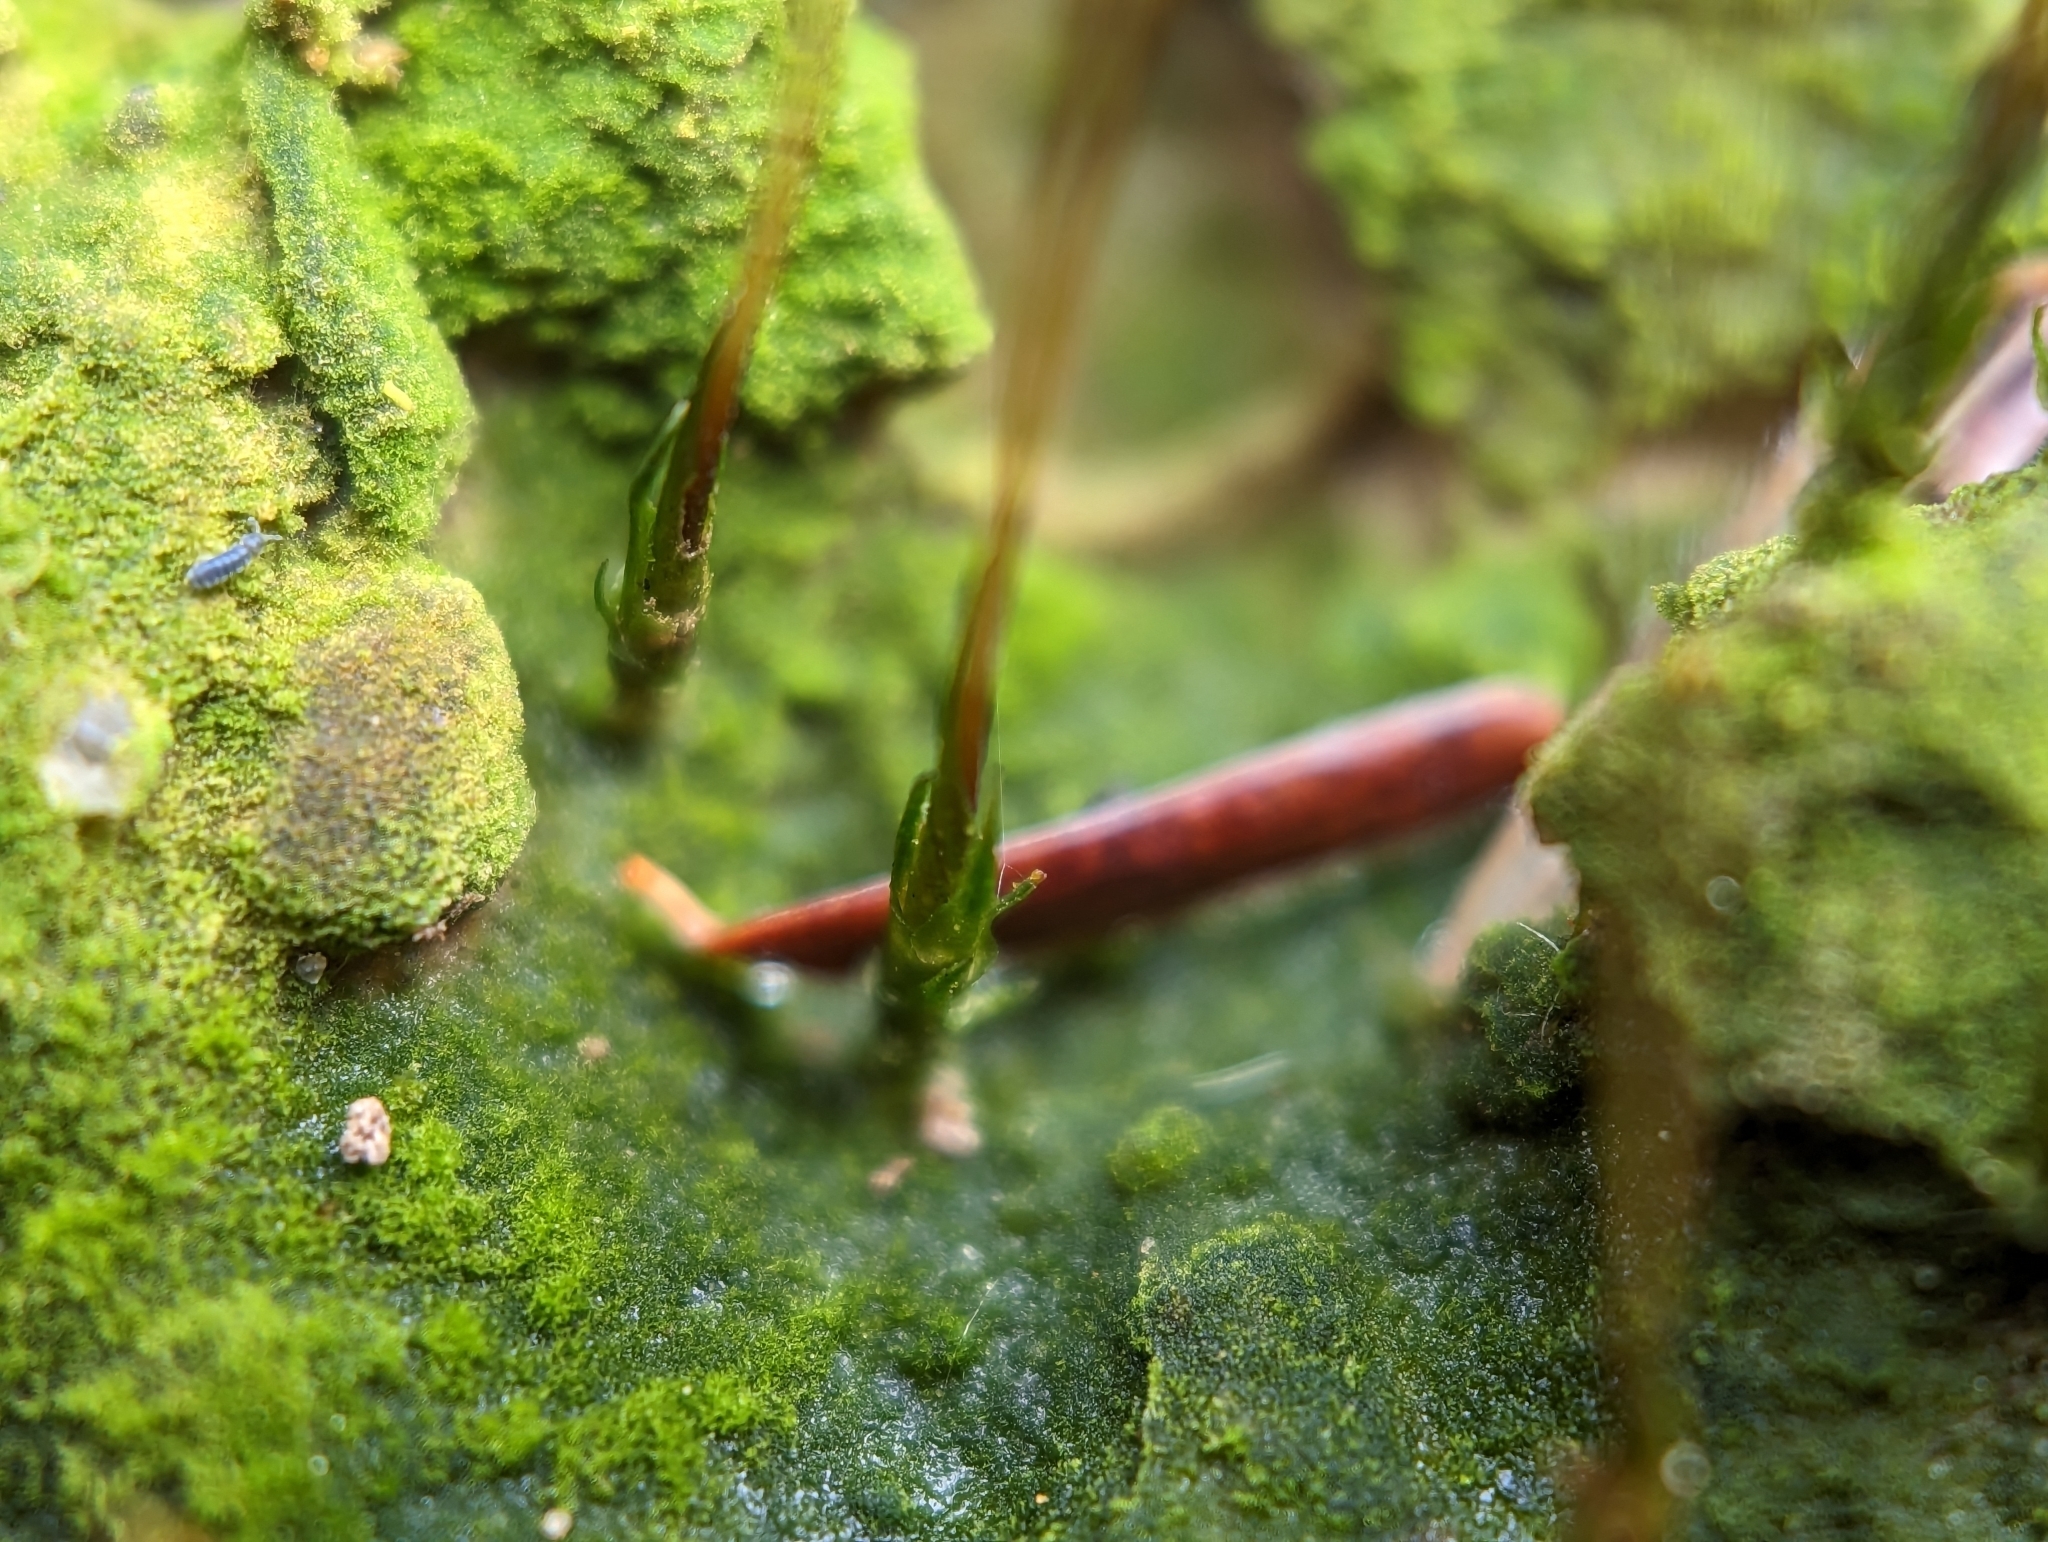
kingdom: Plantae
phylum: Bryophyta
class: Polytrichopsida
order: Polytrichales
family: Polytrichaceae
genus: Pogonatum
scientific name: Pogonatum pensilvanicum
